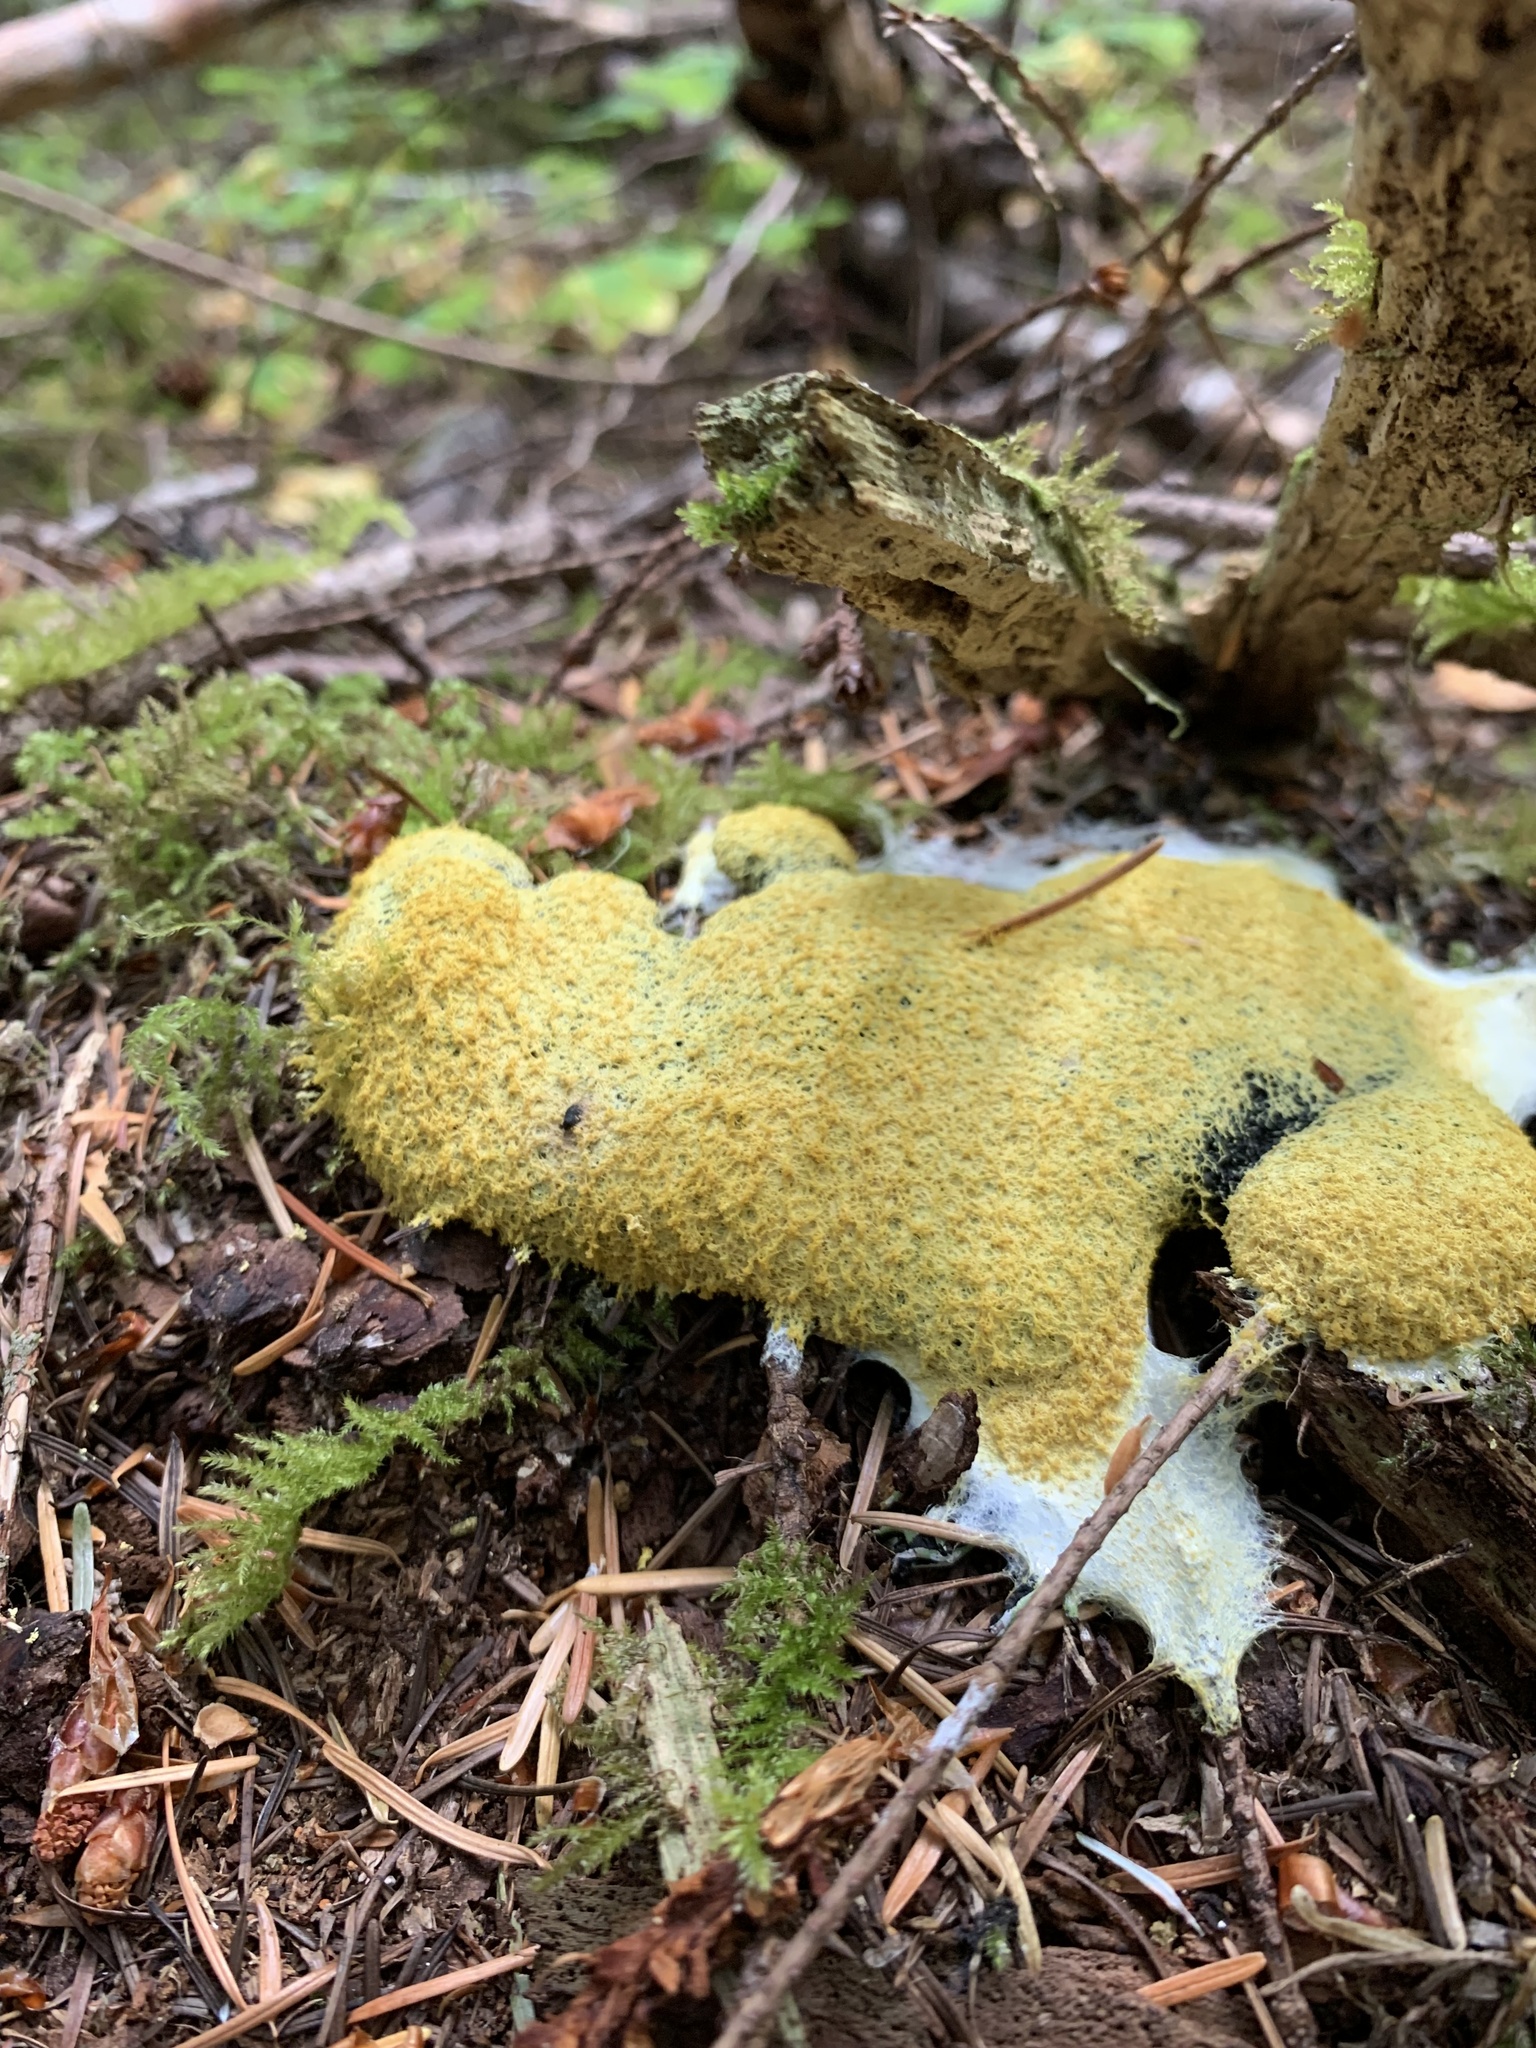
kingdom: Protozoa
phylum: Mycetozoa
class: Myxomycetes
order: Physarales
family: Physaraceae
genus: Fuligo
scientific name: Fuligo septica
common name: Dog vomit slime mold
